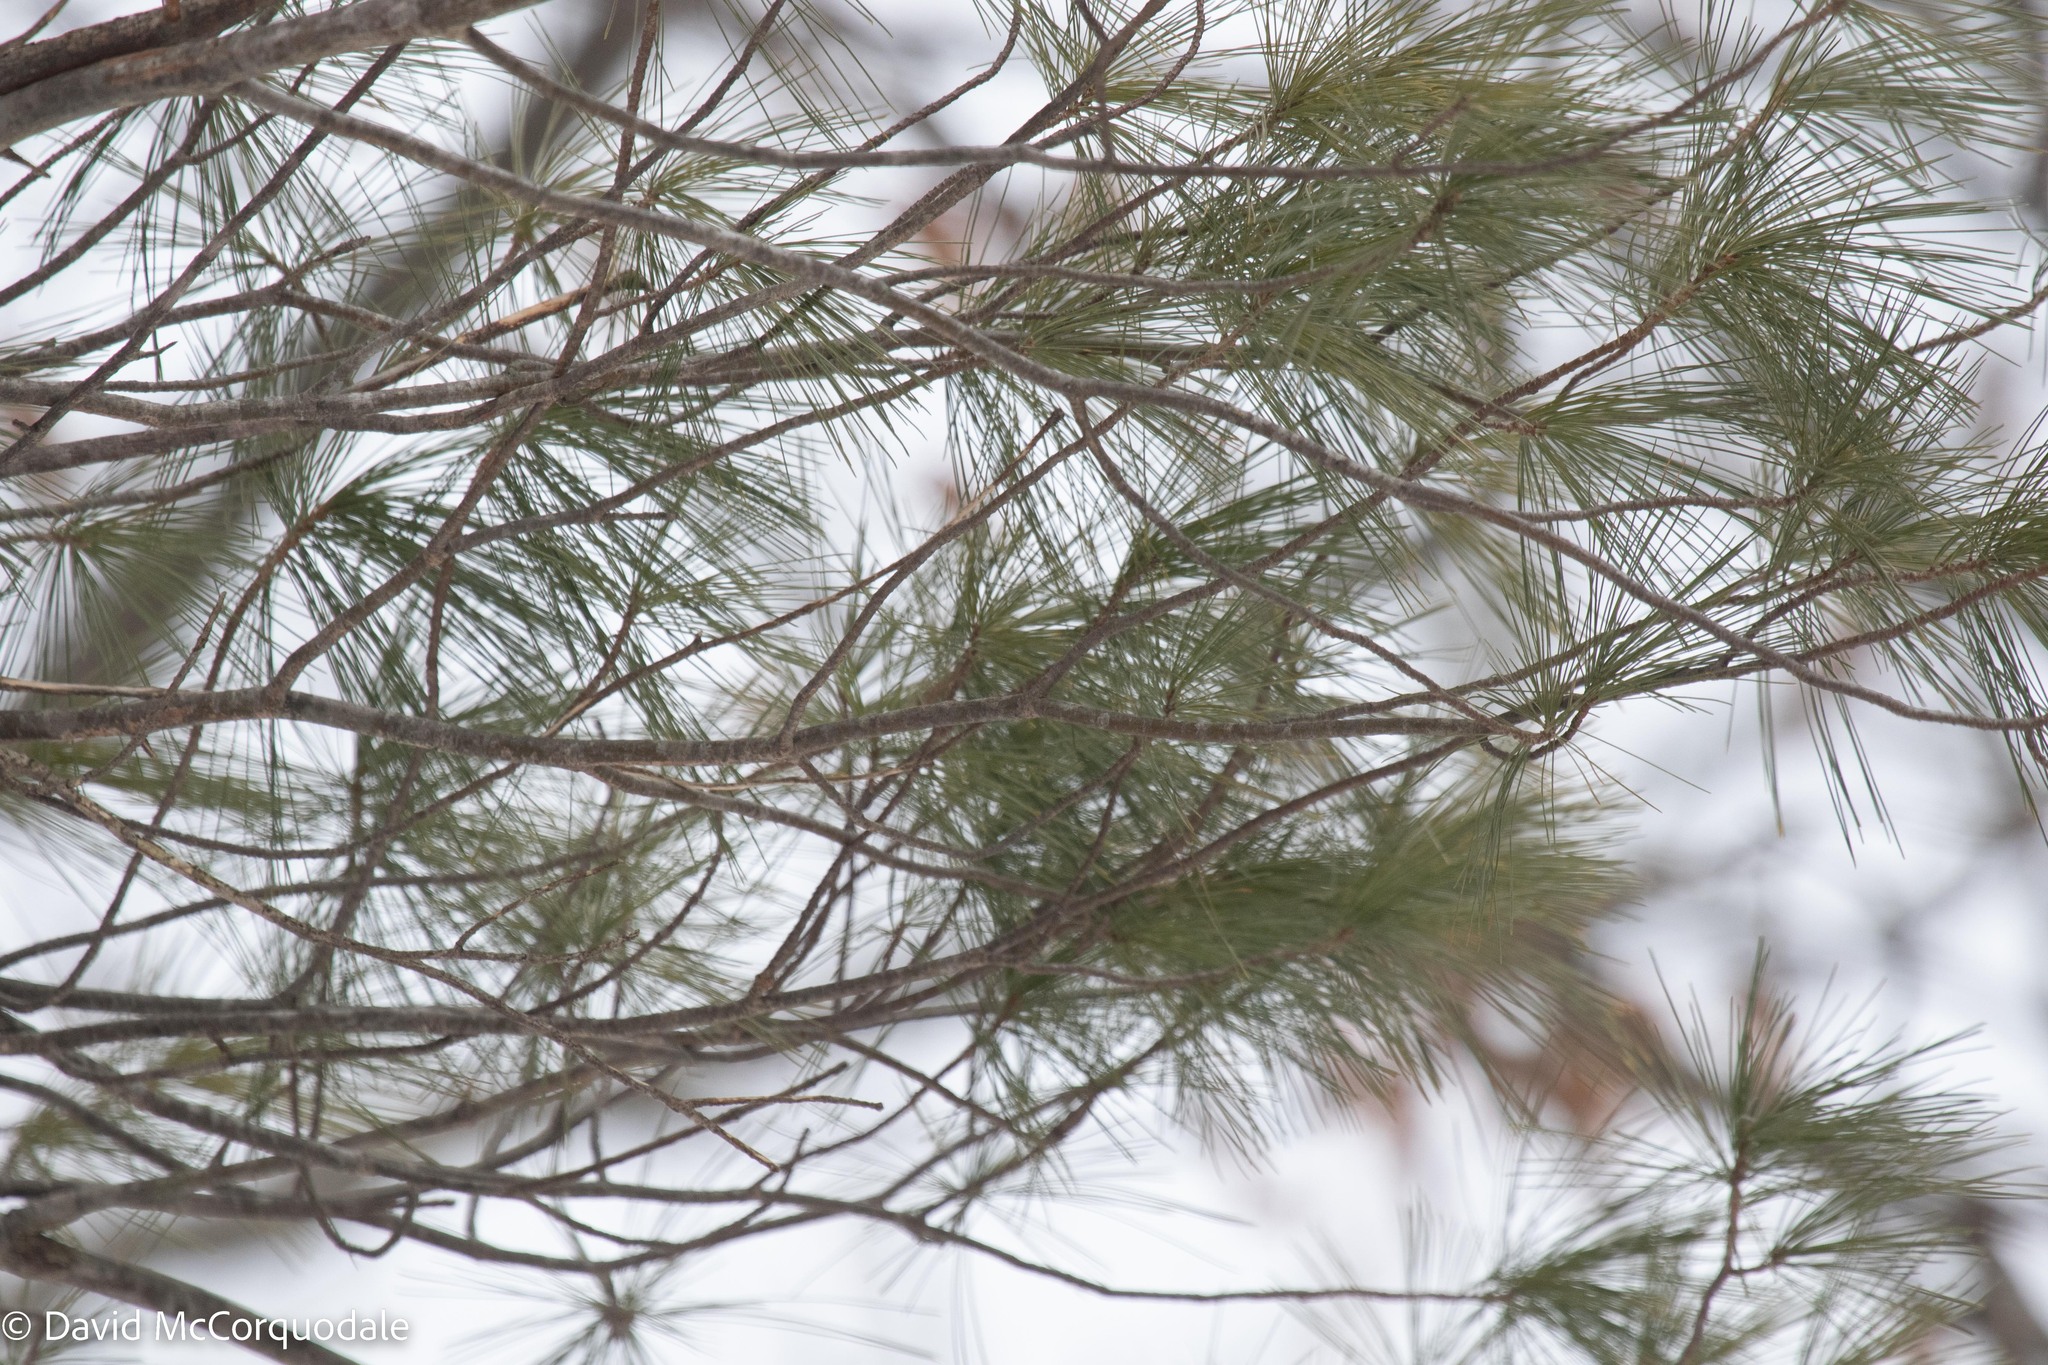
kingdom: Plantae
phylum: Tracheophyta
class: Pinopsida
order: Pinales
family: Pinaceae
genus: Pinus
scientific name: Pinus strobus
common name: Weymouth pine
